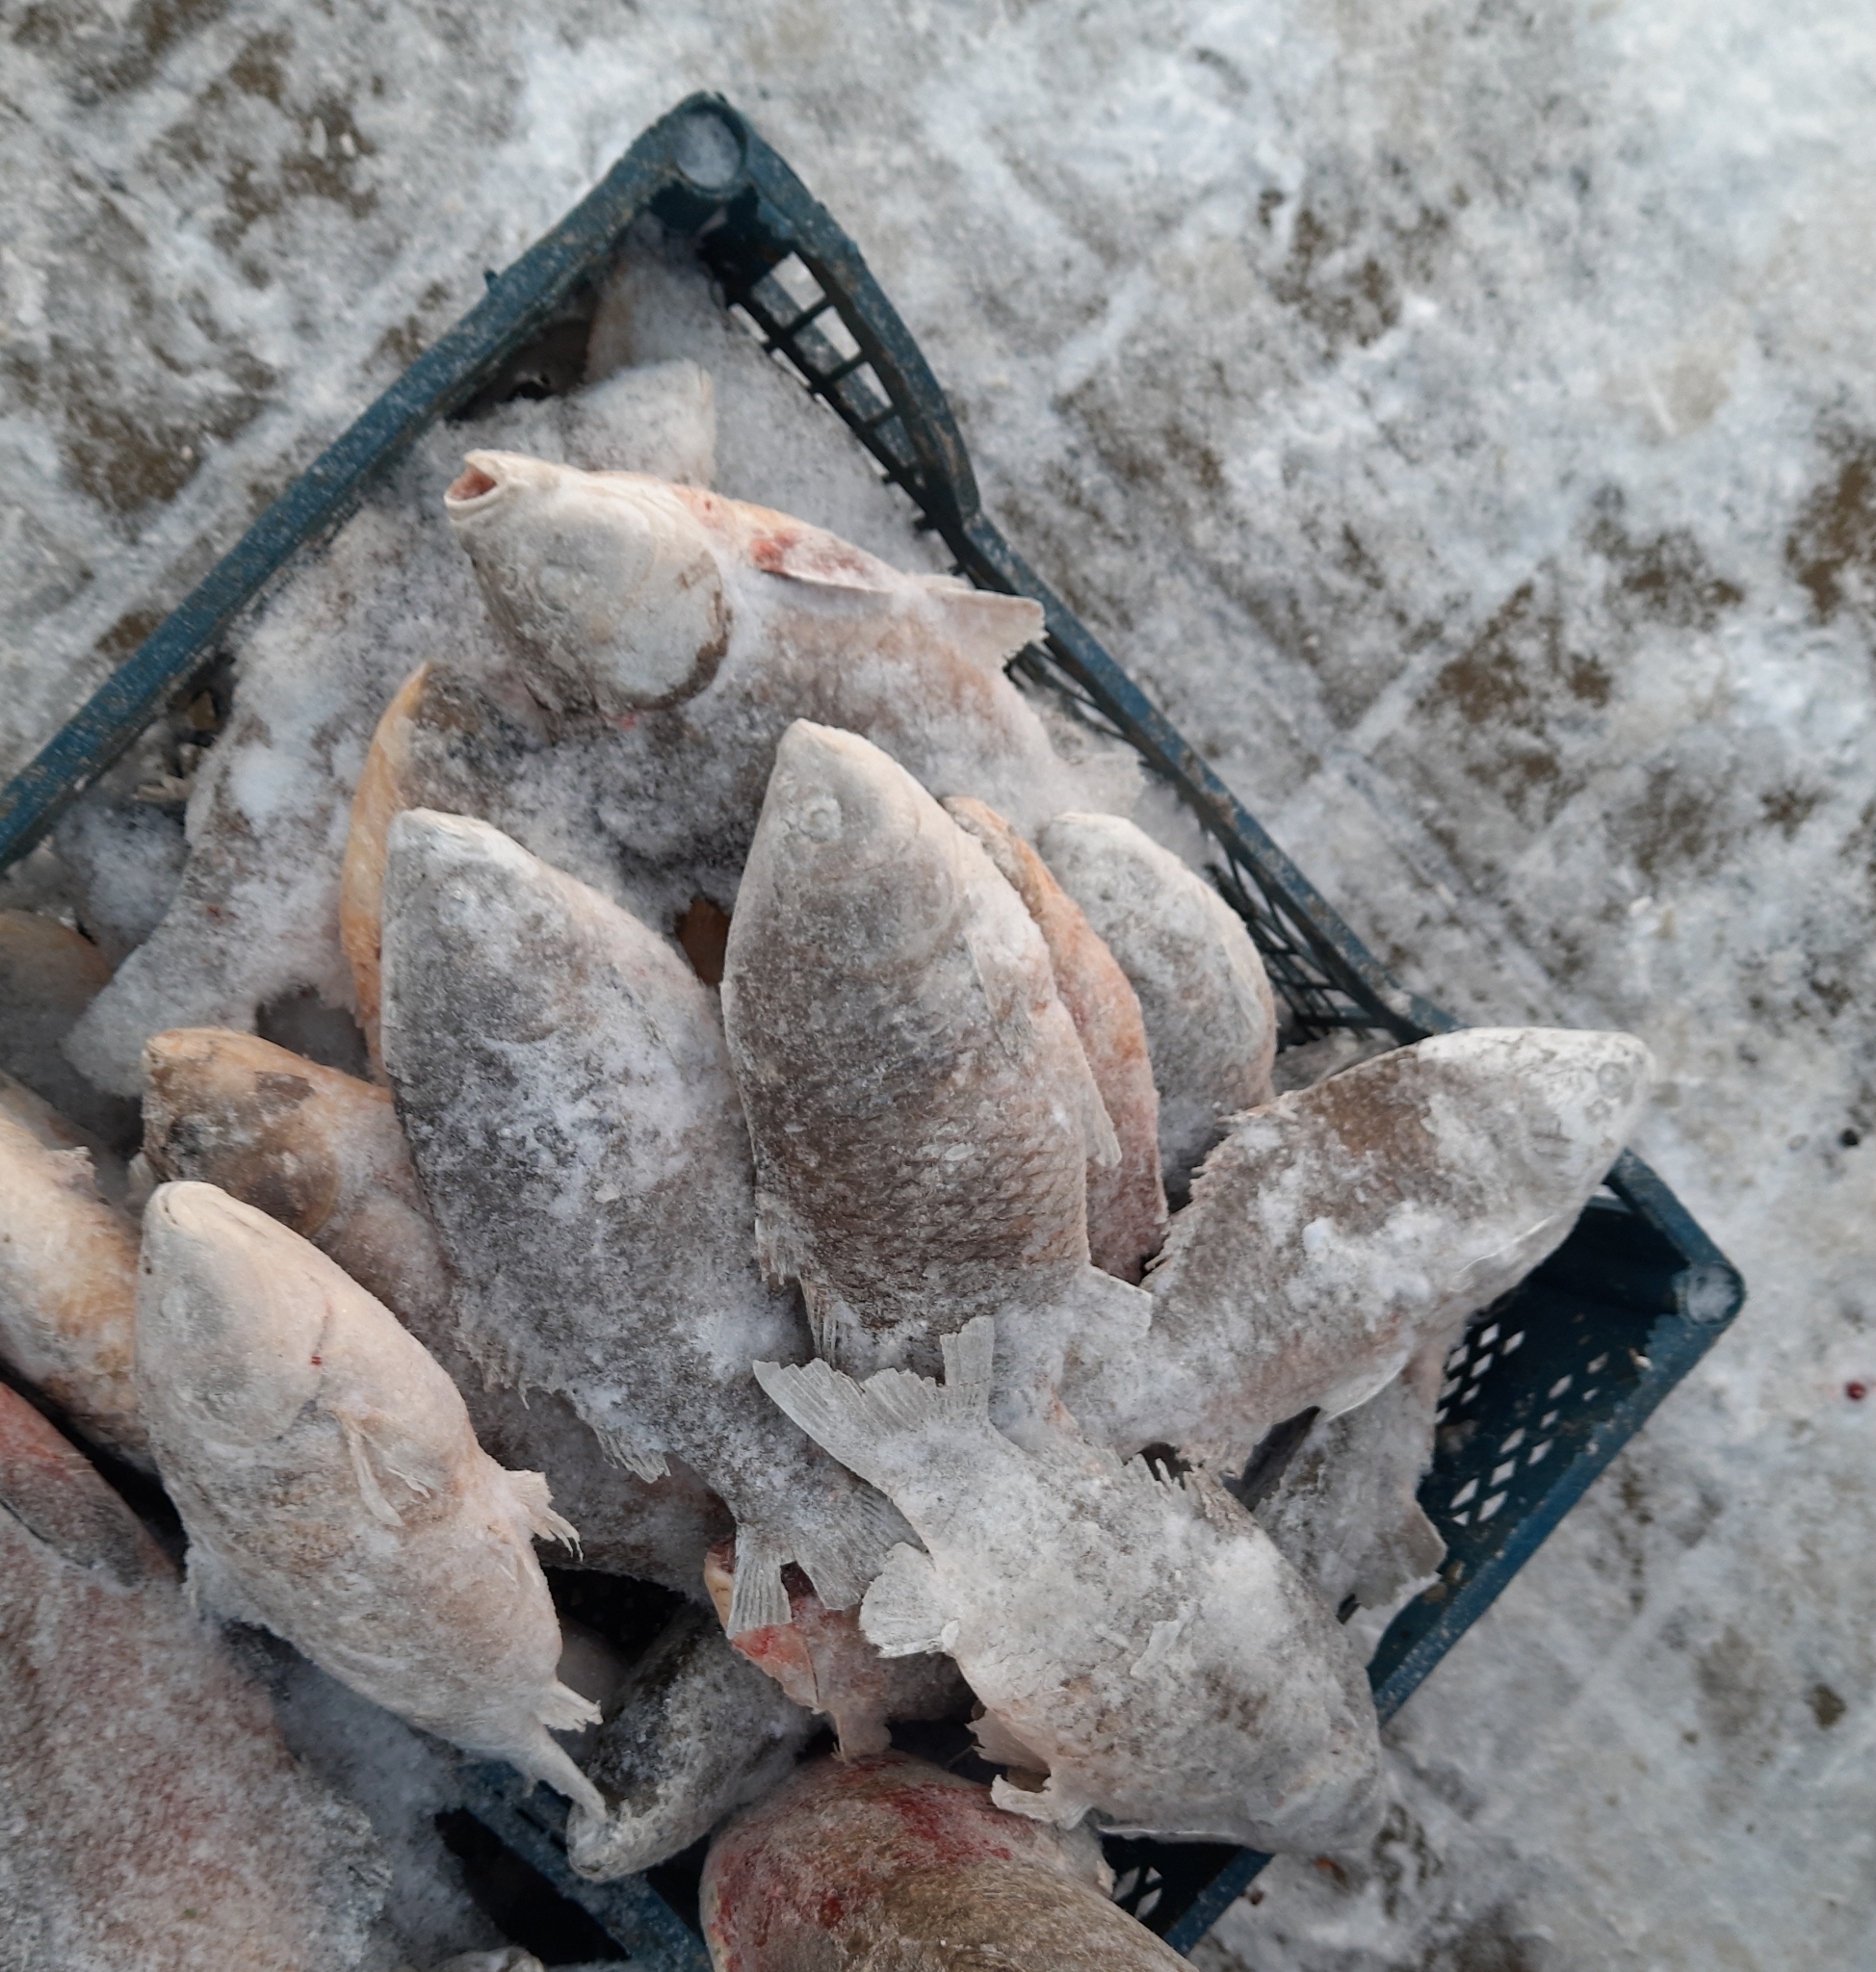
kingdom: Animalia
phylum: Chordata
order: Cypriniformes
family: Cyprinidae
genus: Carassius
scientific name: Carassius gibelio
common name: Prussian carp
